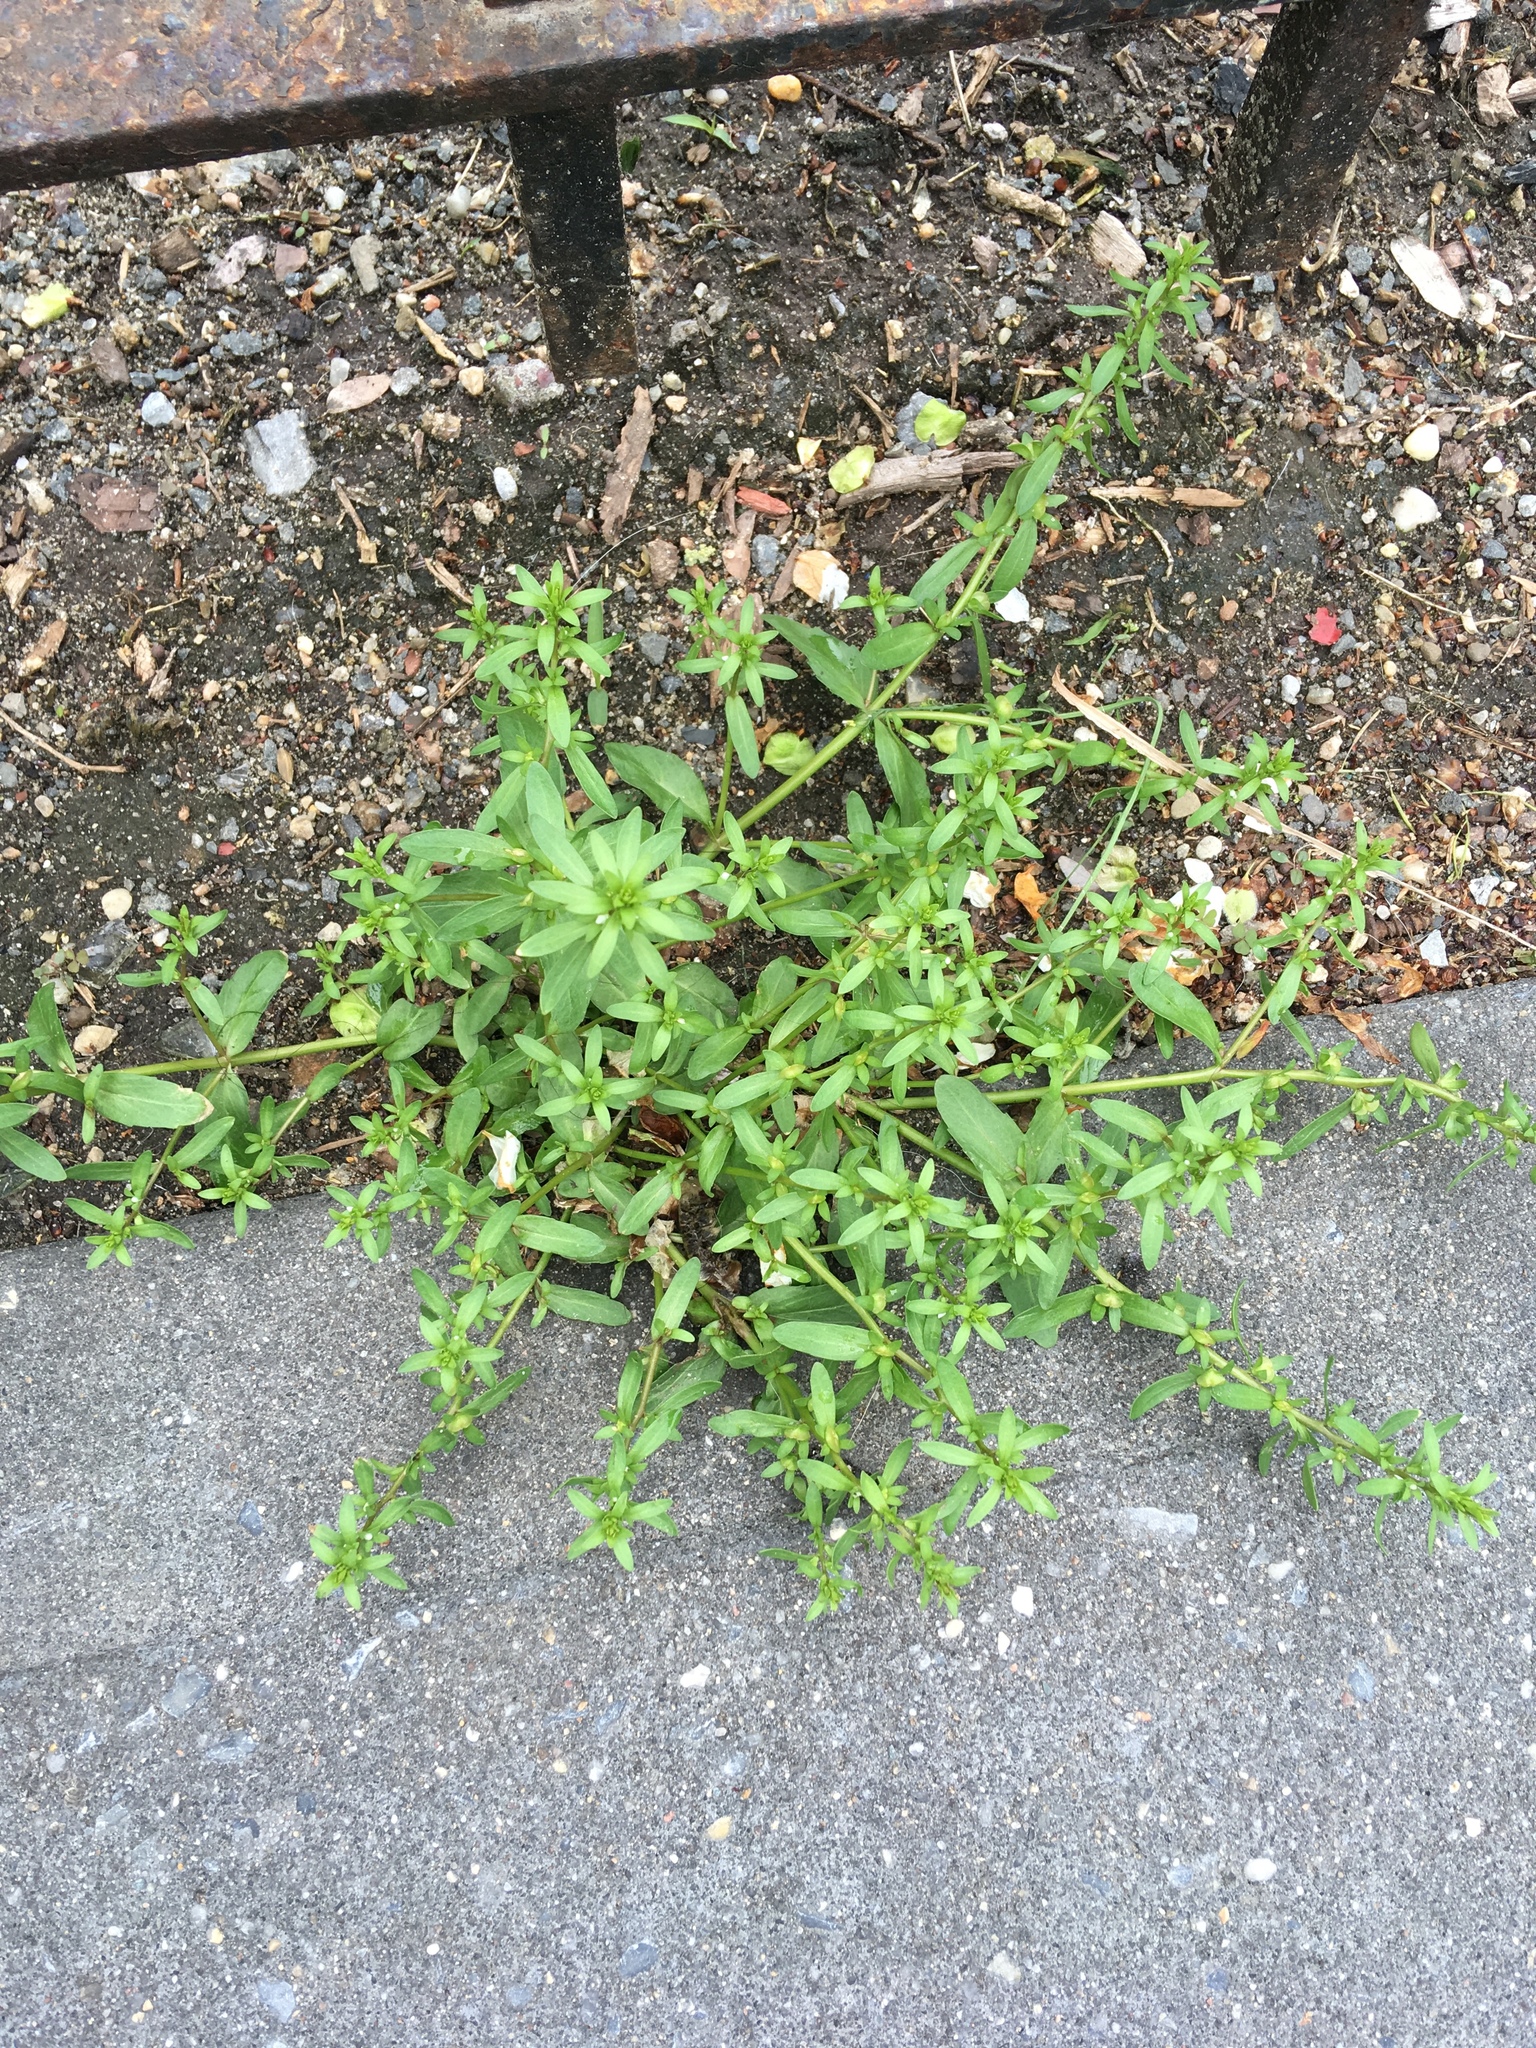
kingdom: Plantae
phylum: Tracheophyta
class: Magnoliopsida
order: Lamiales
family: Plantaginaceae
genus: Veronica
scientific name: Veronica peregrina
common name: Neckweed
